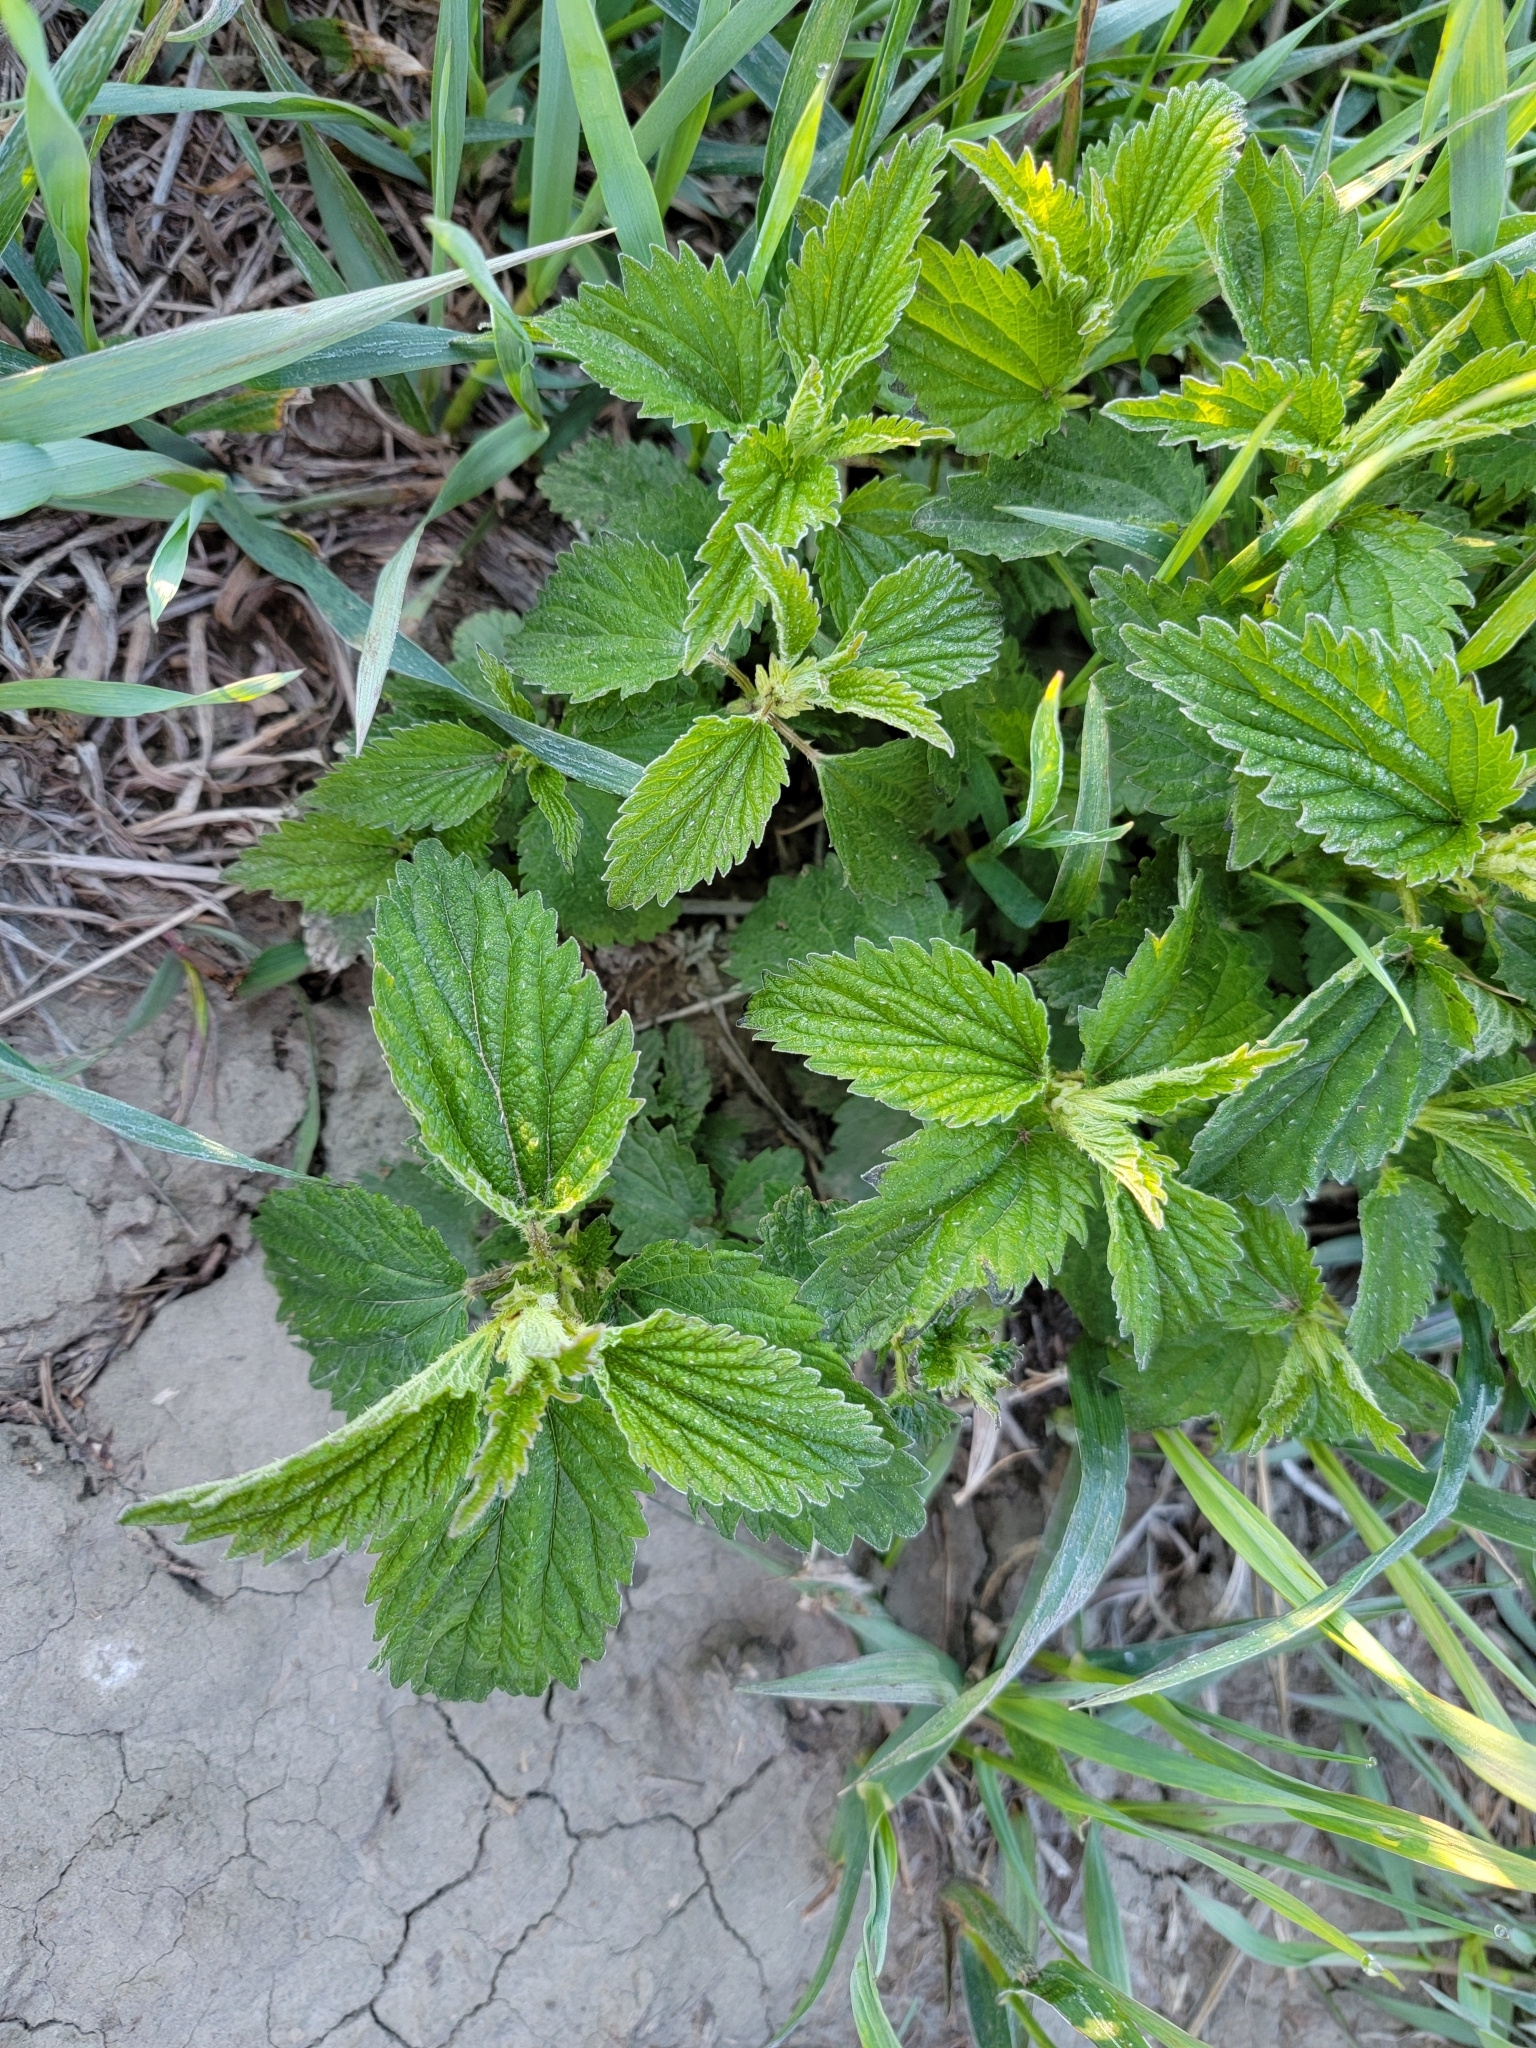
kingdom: Plantae
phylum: Tracheophyta
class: Magnoliopsida
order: Rosales
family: Urticaceae
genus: Urtica
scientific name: Urtica gracilis
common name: Slender stinging nettle
